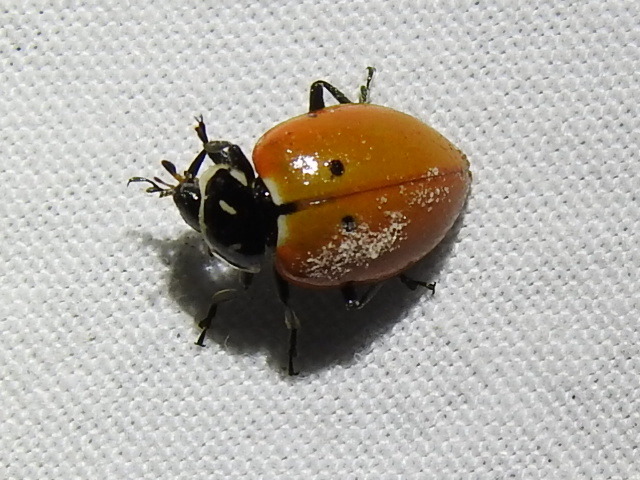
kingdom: Animalia
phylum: Arthropoda
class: Insecta
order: Coleoptera
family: Coccinellidae
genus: Hippodamia
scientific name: Hippodamia convergens
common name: Convergent lady beetle
